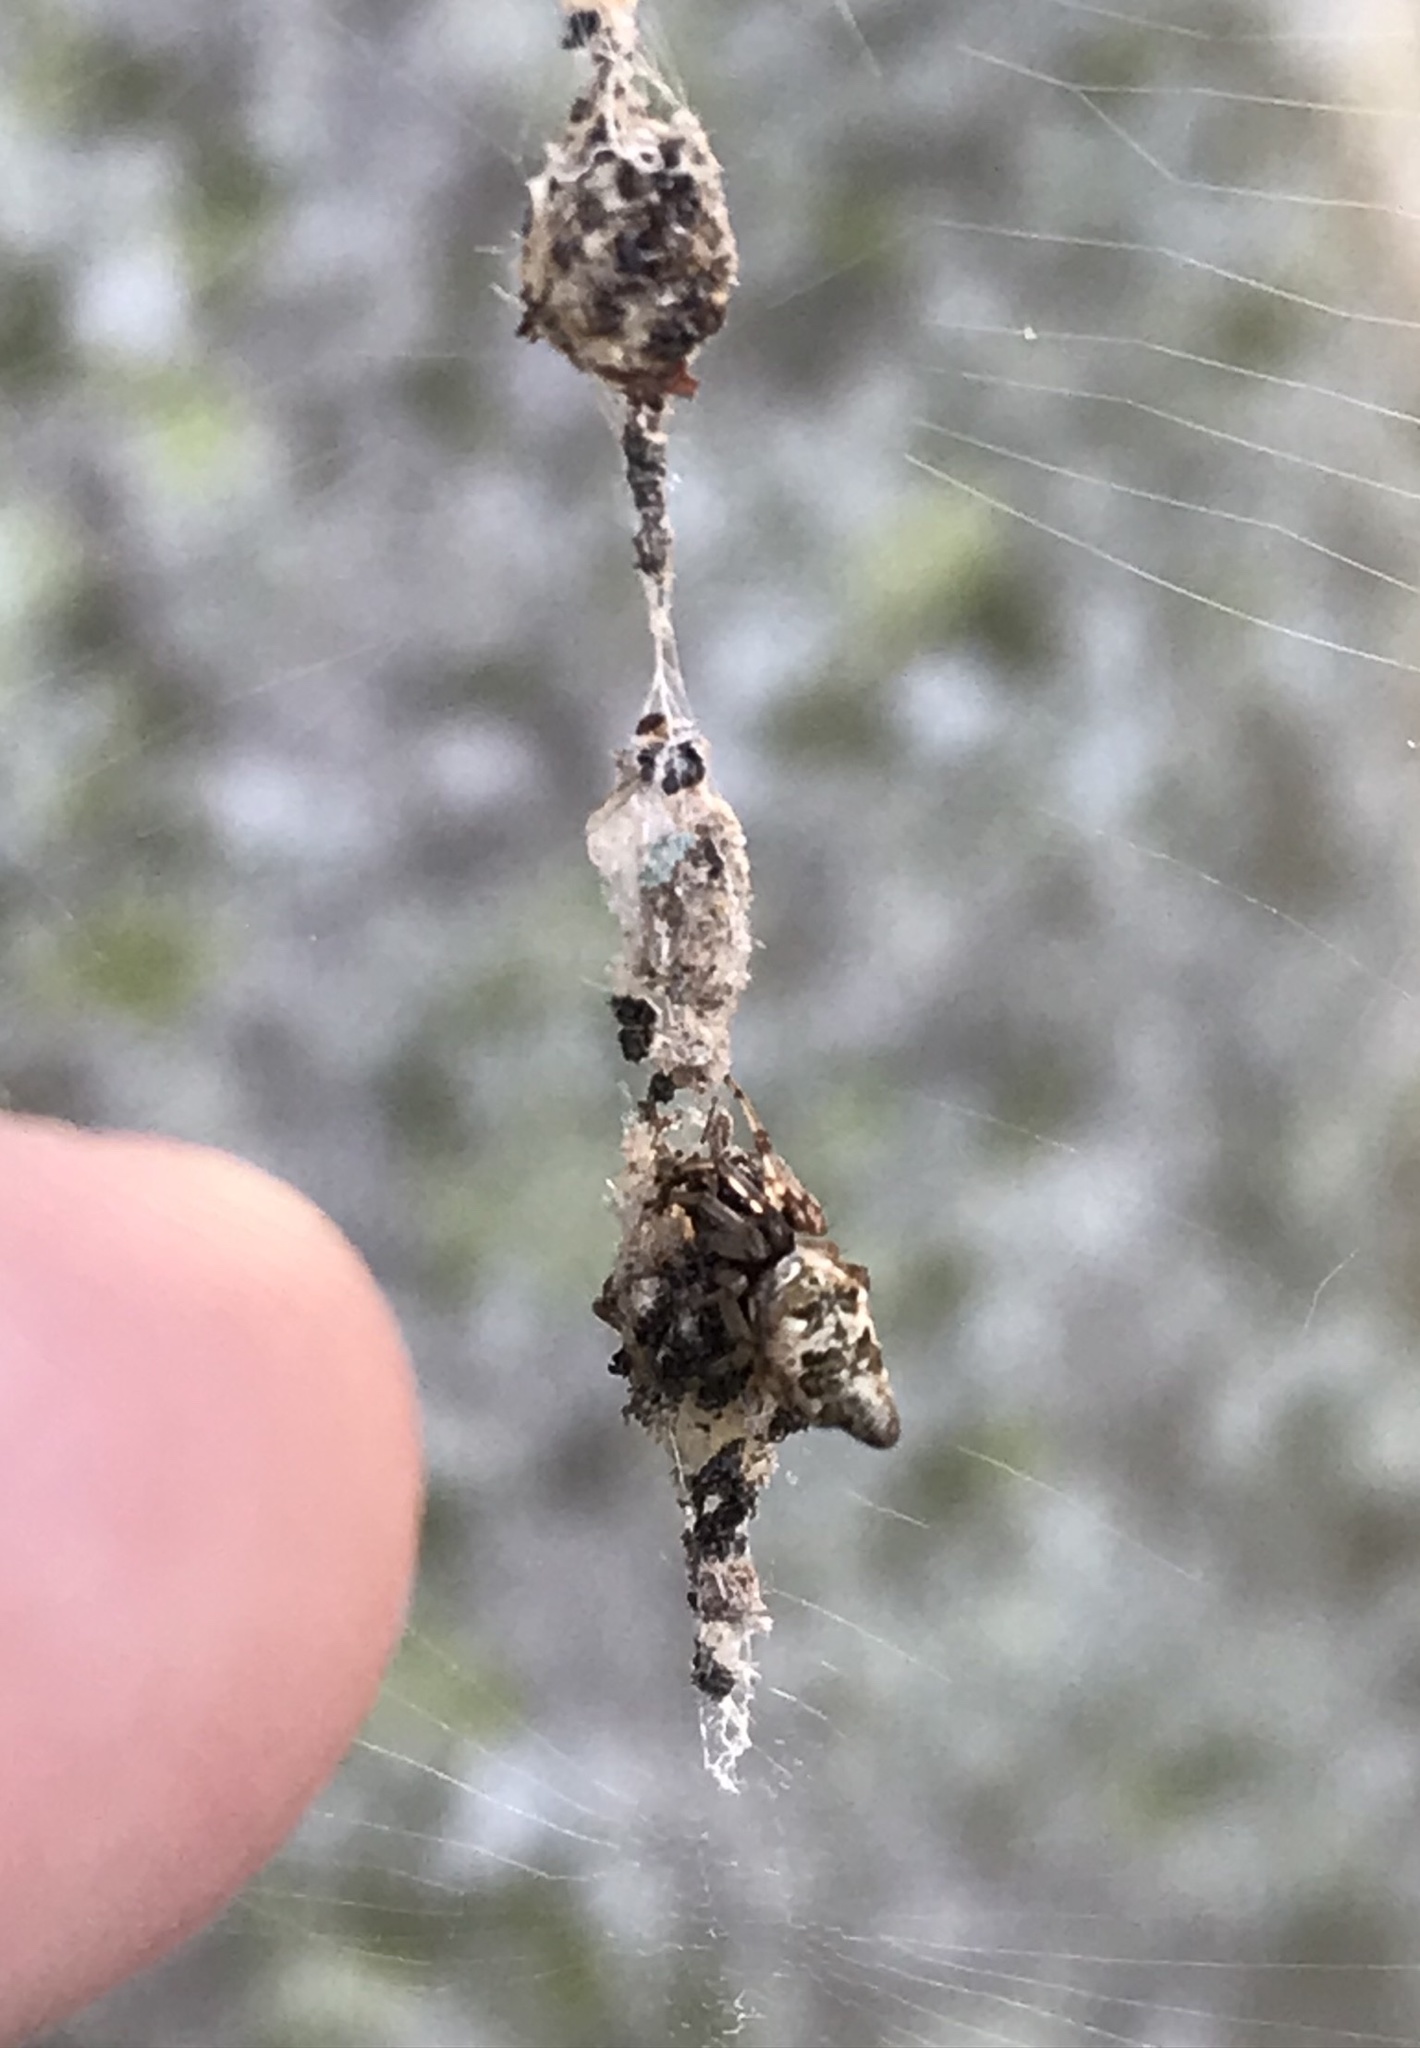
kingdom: Animalia
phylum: Arthropoda
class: Arachnida
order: Araneae
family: Araneidae
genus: Cyclosa
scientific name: Cyclosa turbinata
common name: Orb weavers
